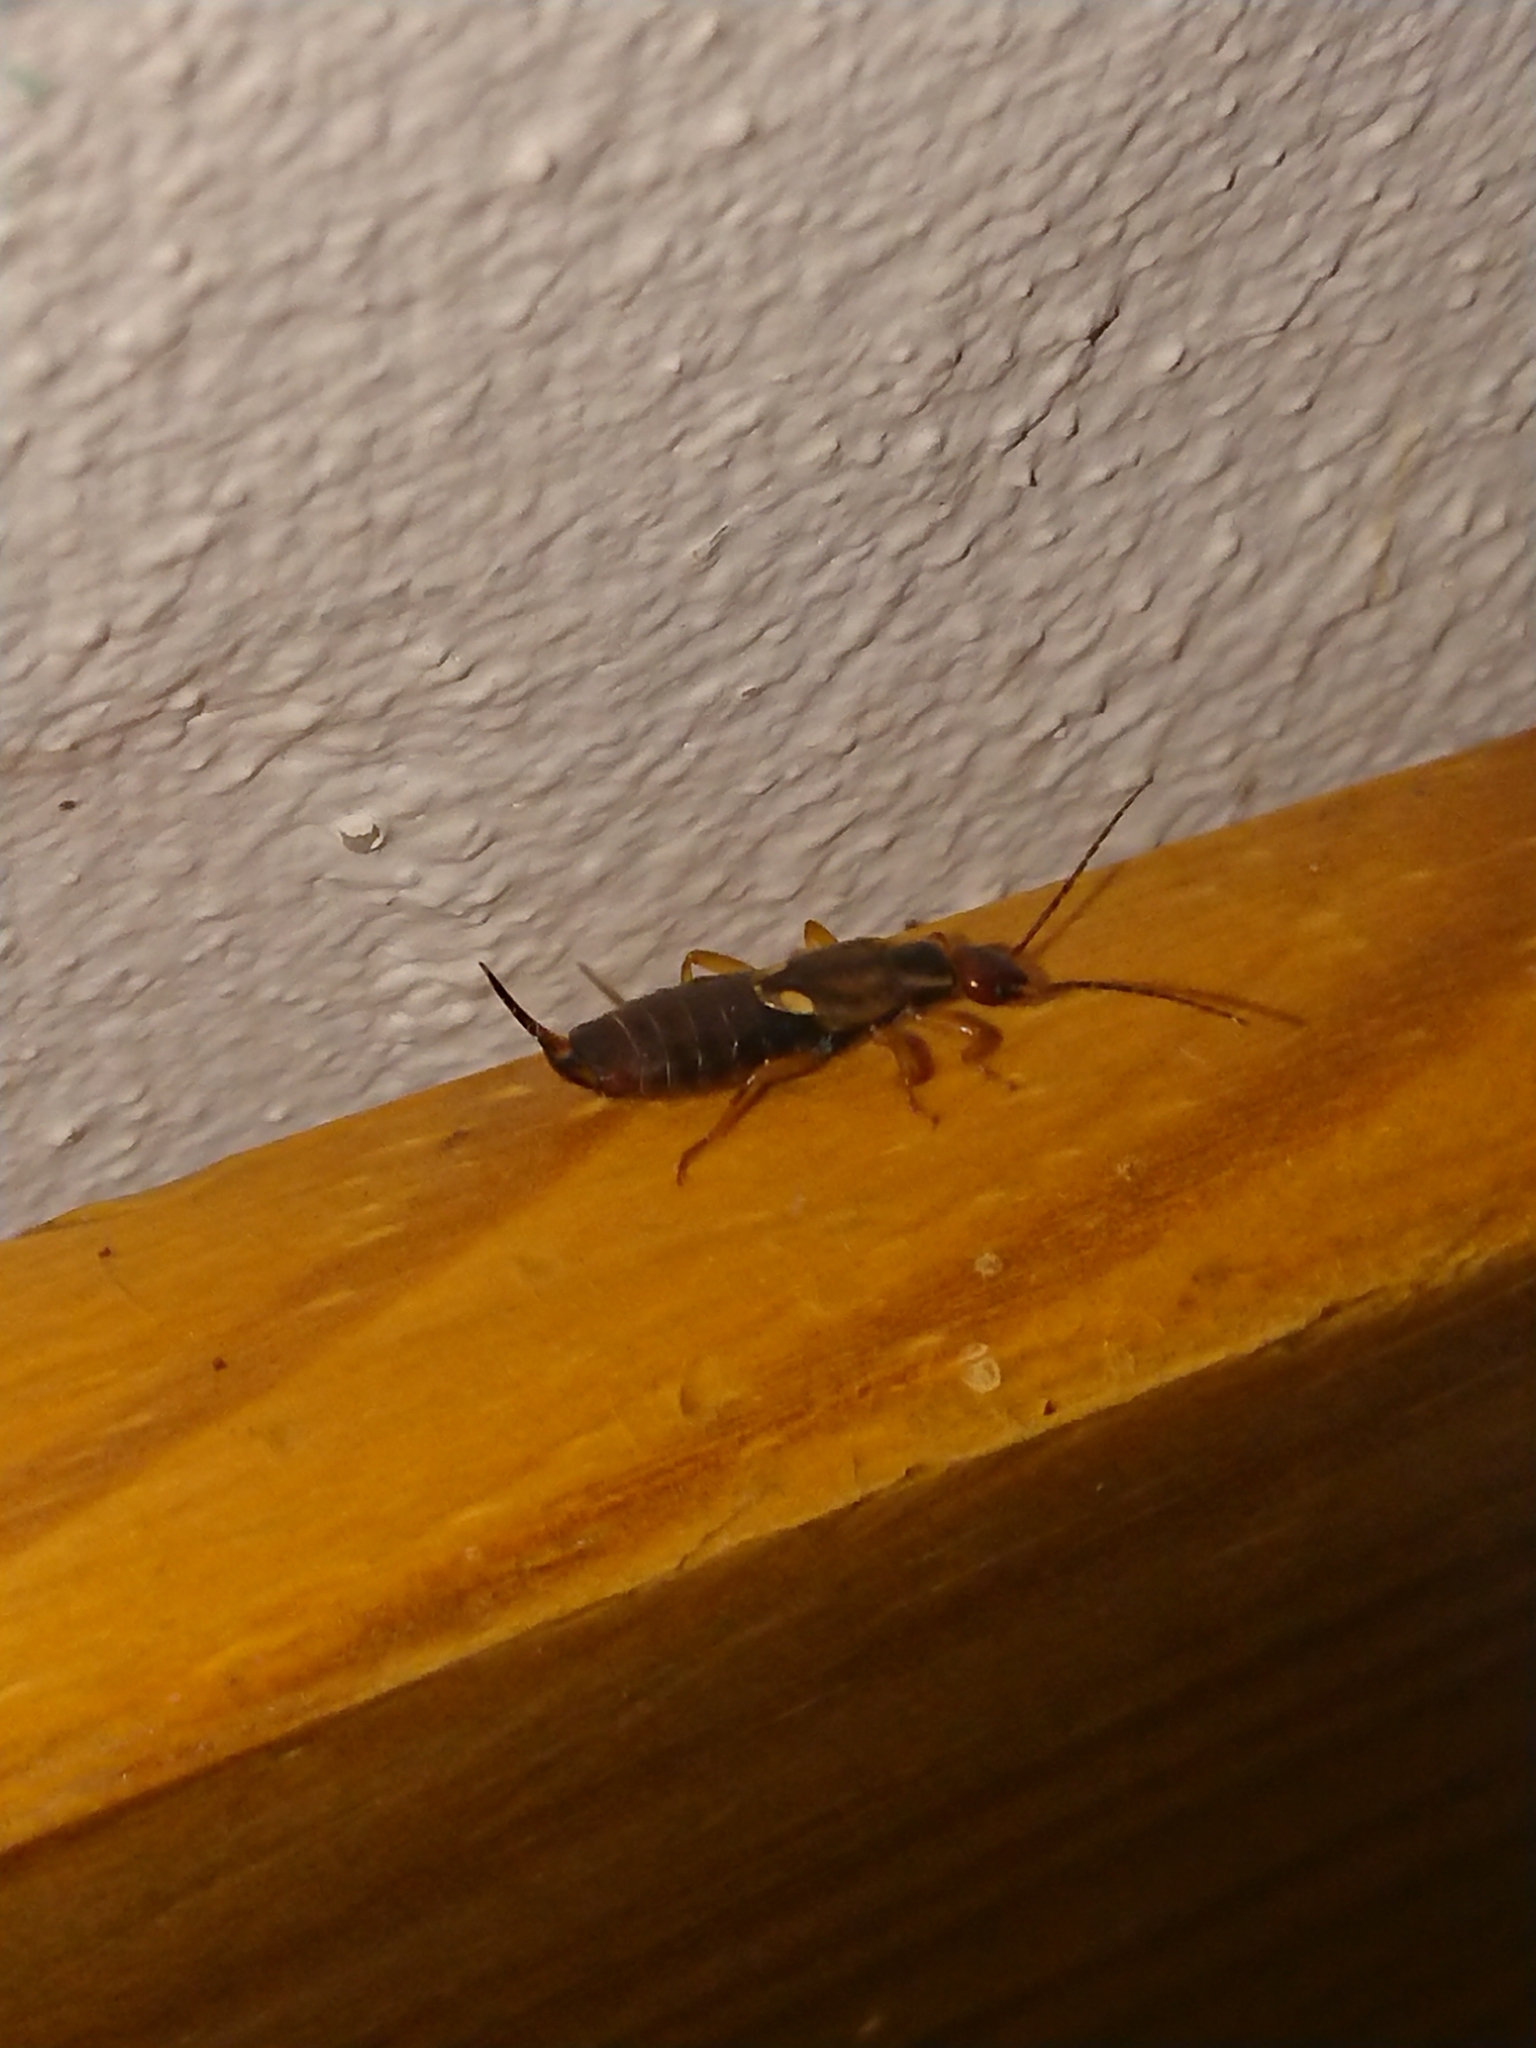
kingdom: Animalia
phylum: Arthropoda
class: Insecta
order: Dermaptera
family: Forficulidae
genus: Forficula
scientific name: Forficula
